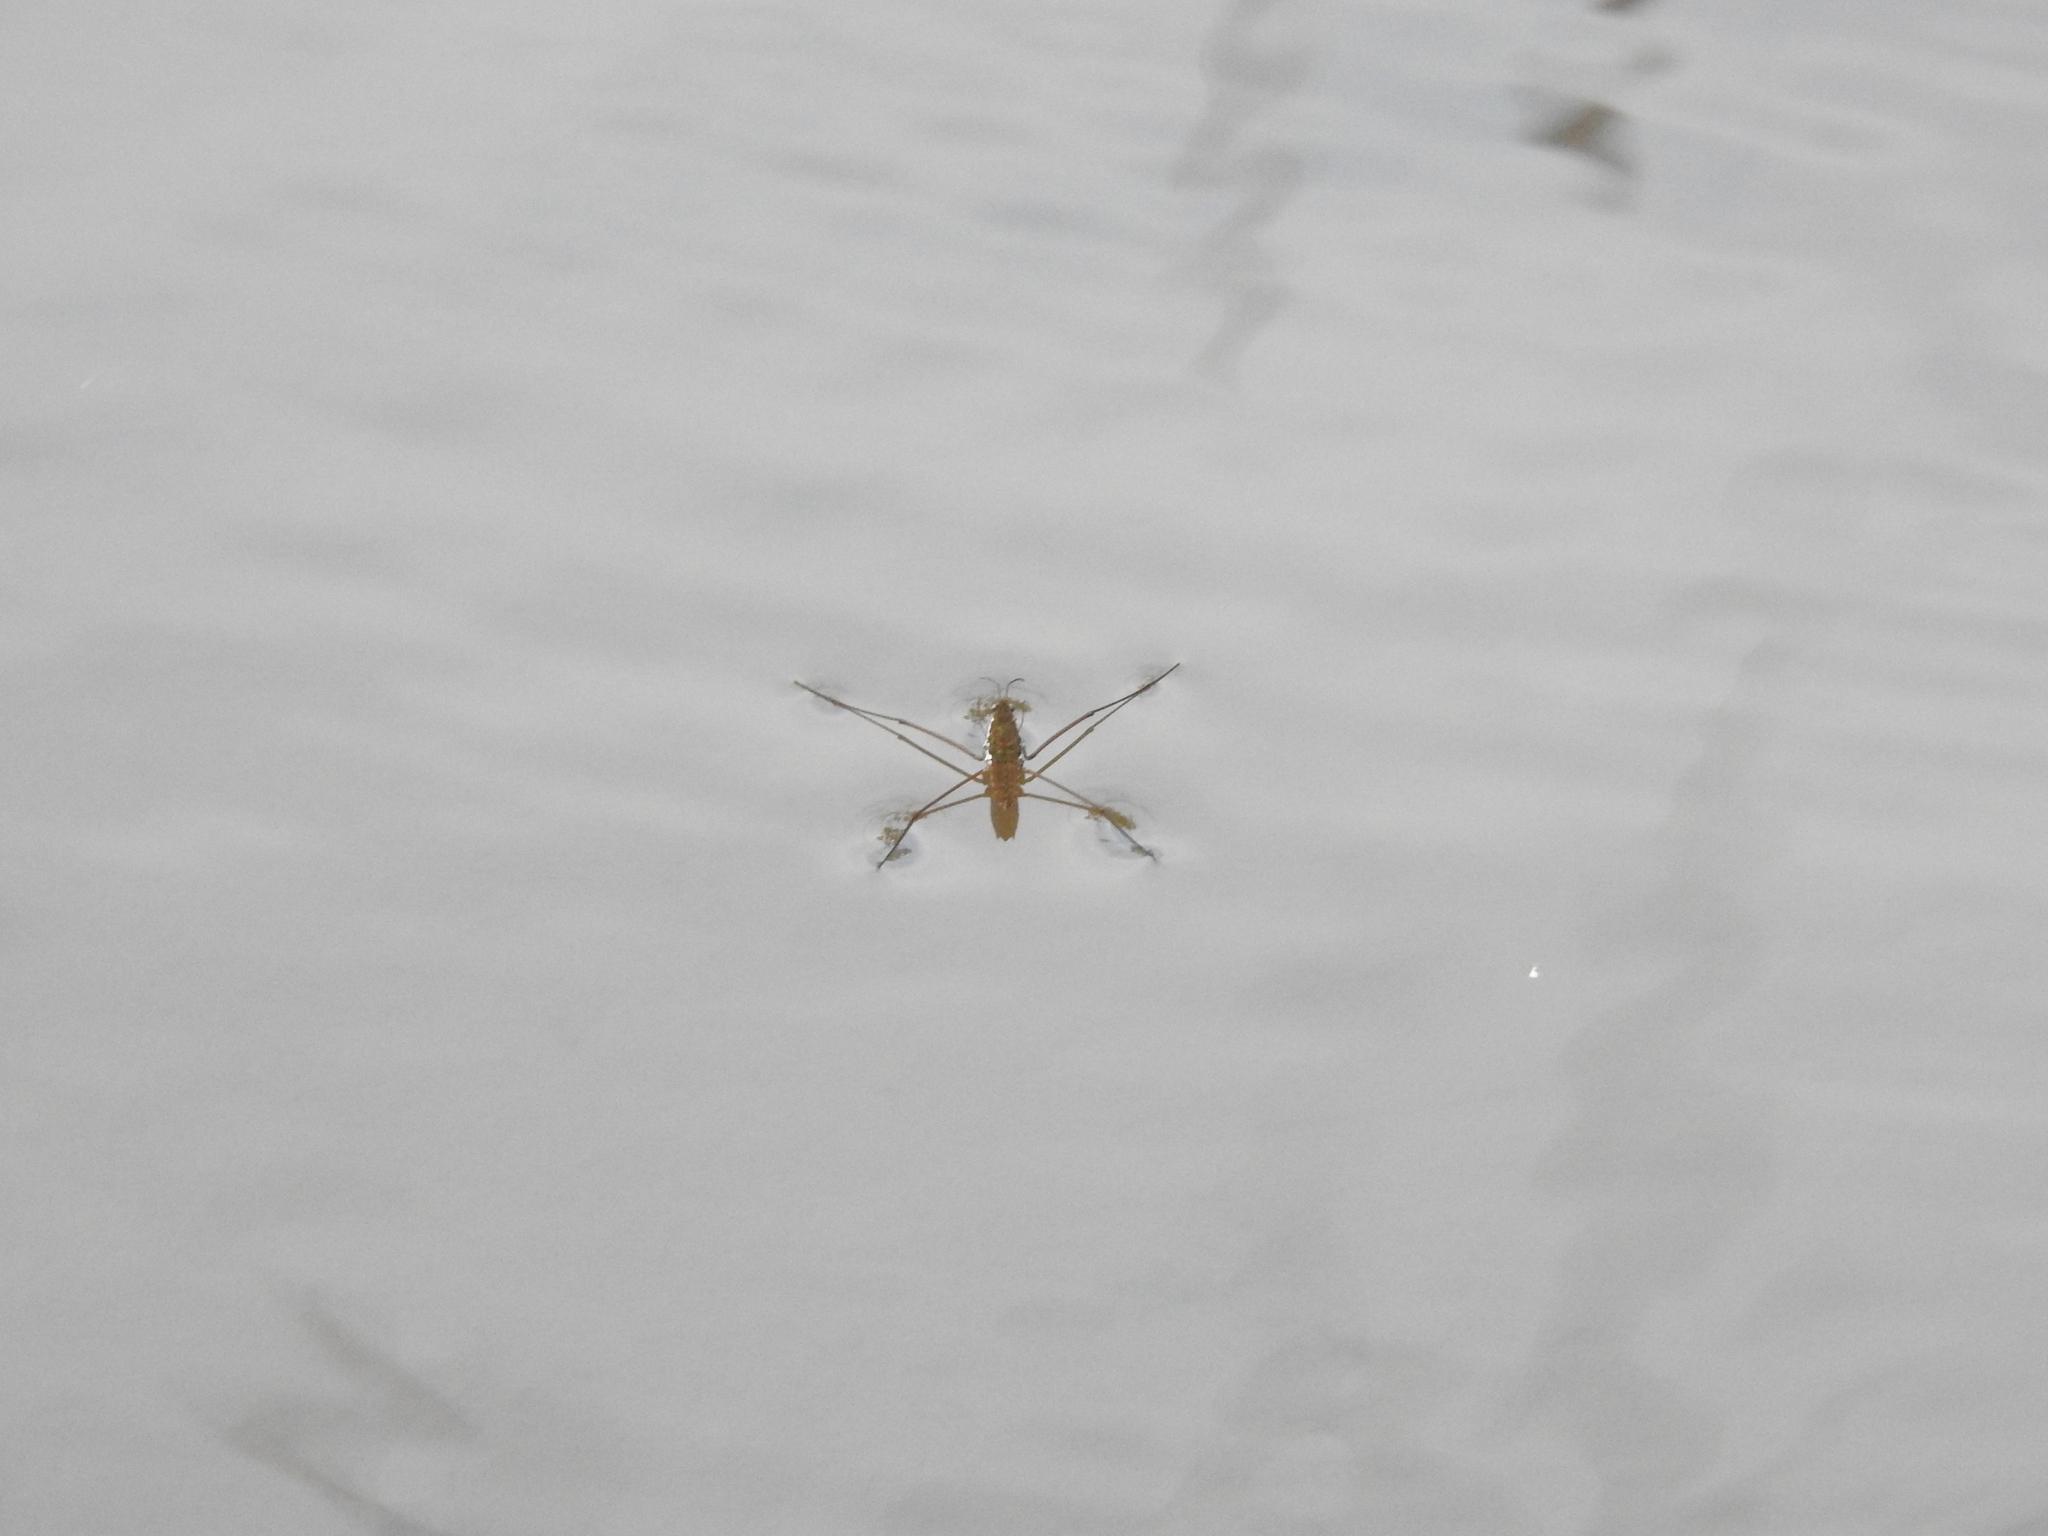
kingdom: Animalia
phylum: Arthropoda
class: Insecta
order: Hemiptera
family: Gerridae
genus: Aquarius
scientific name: Aquarius remigis
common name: Common water strider
